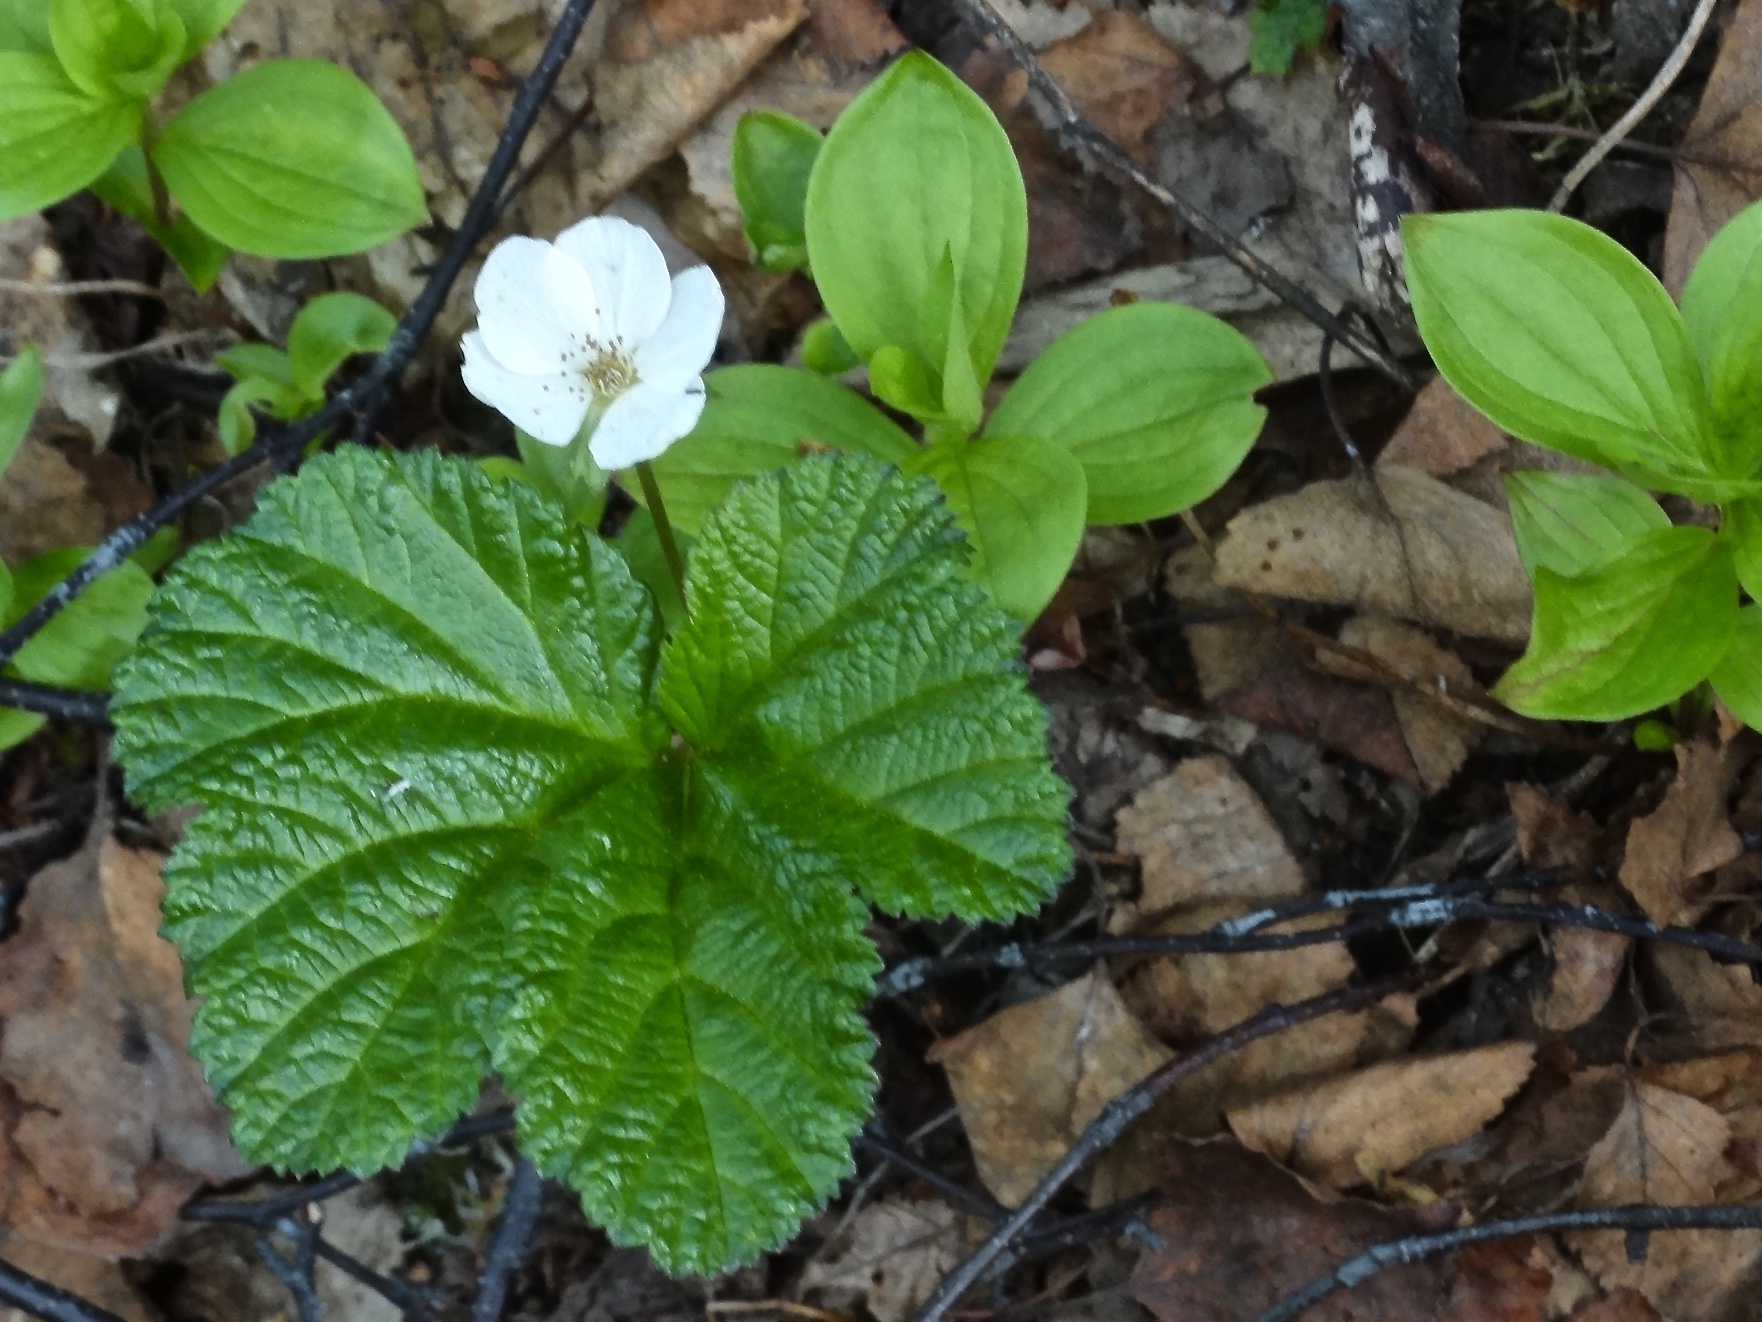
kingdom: Plantae
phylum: Tracheophyta
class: Magnoliopsida
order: Rosales
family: Rosaceae
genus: Rubus
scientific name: Rubus chamaemorus
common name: Cloudberry
